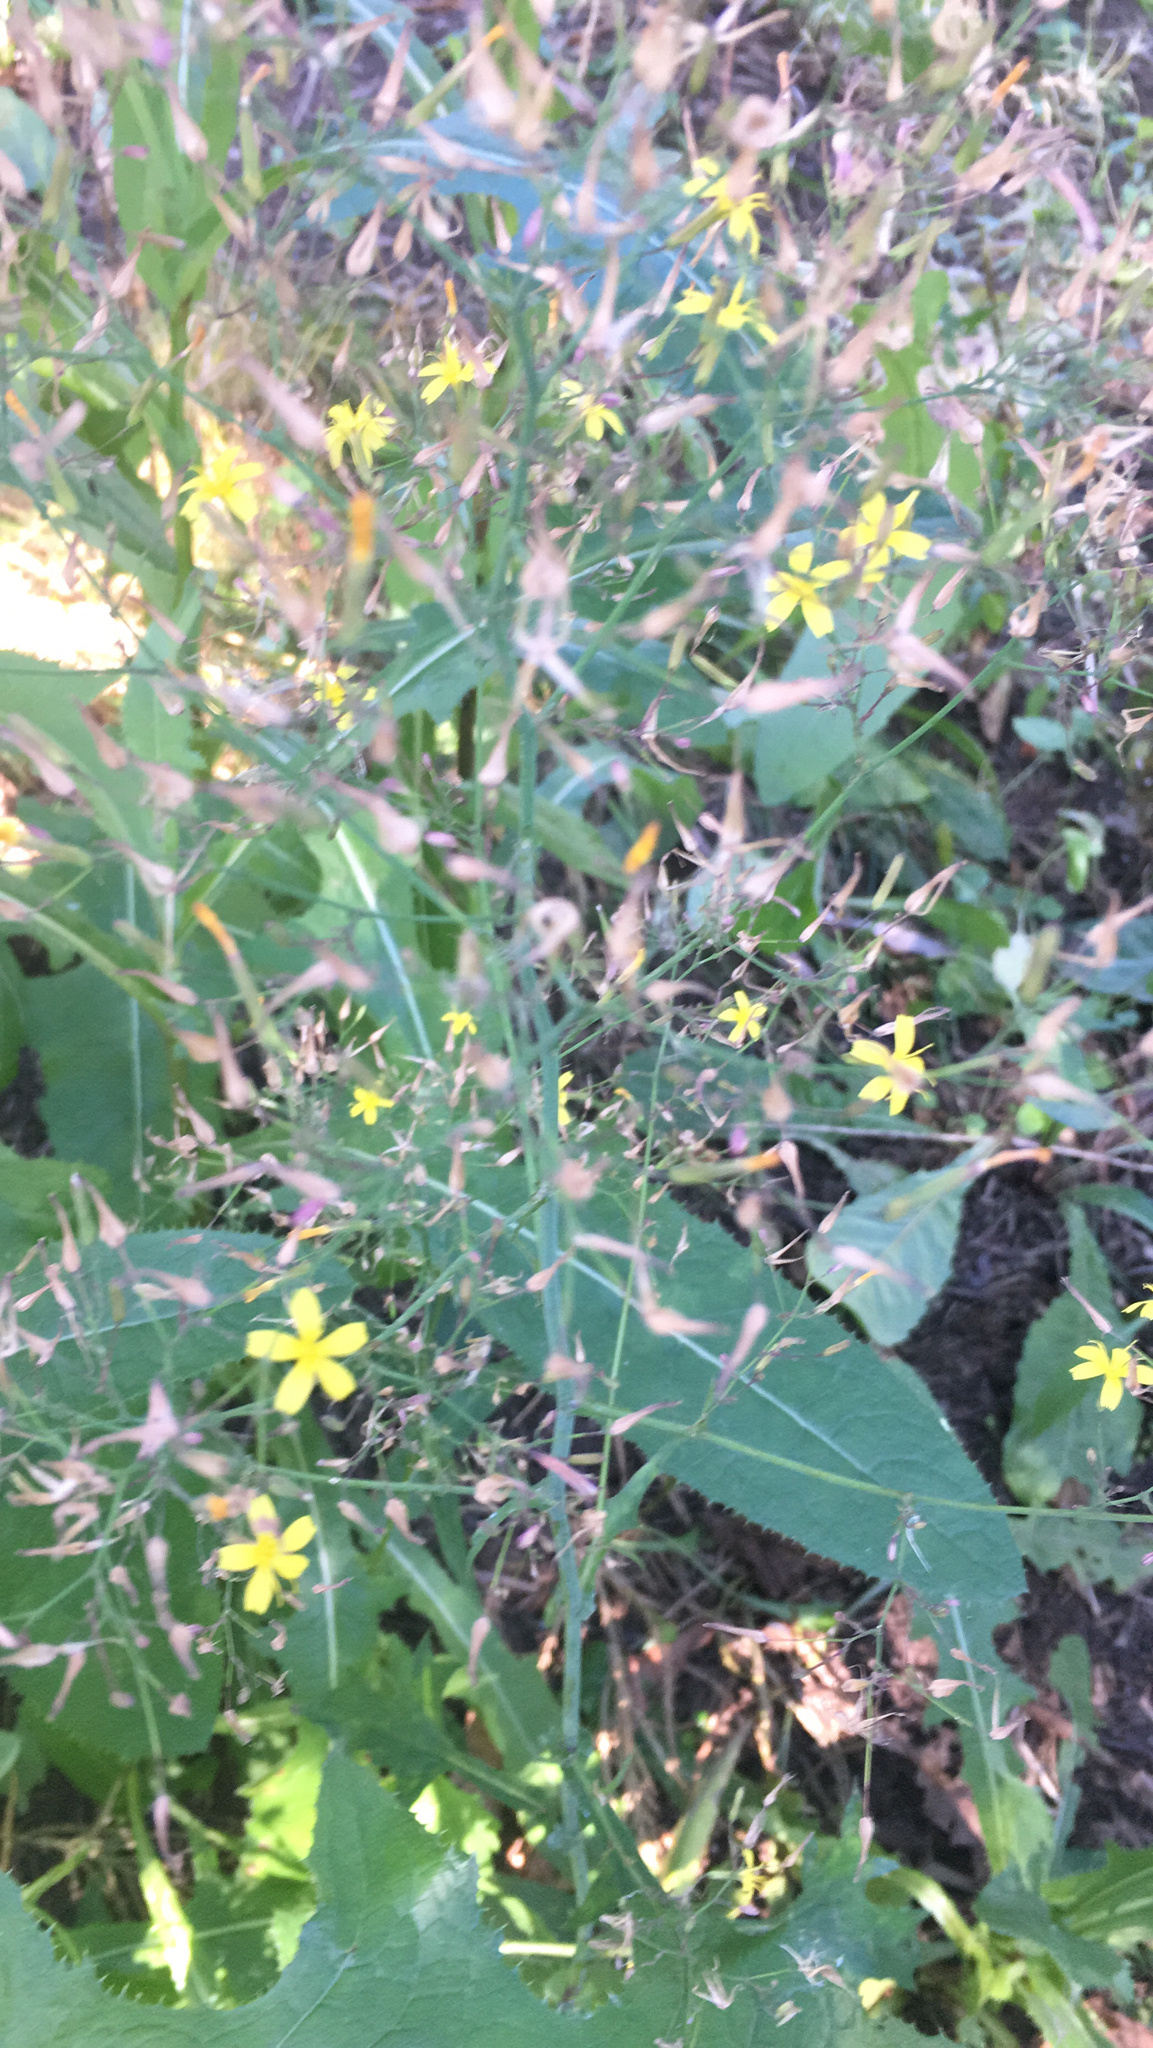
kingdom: Plantae
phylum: Tracheophyta
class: Magnoliopsida
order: Asterales
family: Asteraceae
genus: Mycelis
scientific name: Mycelis muralis
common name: Wall lettuce
